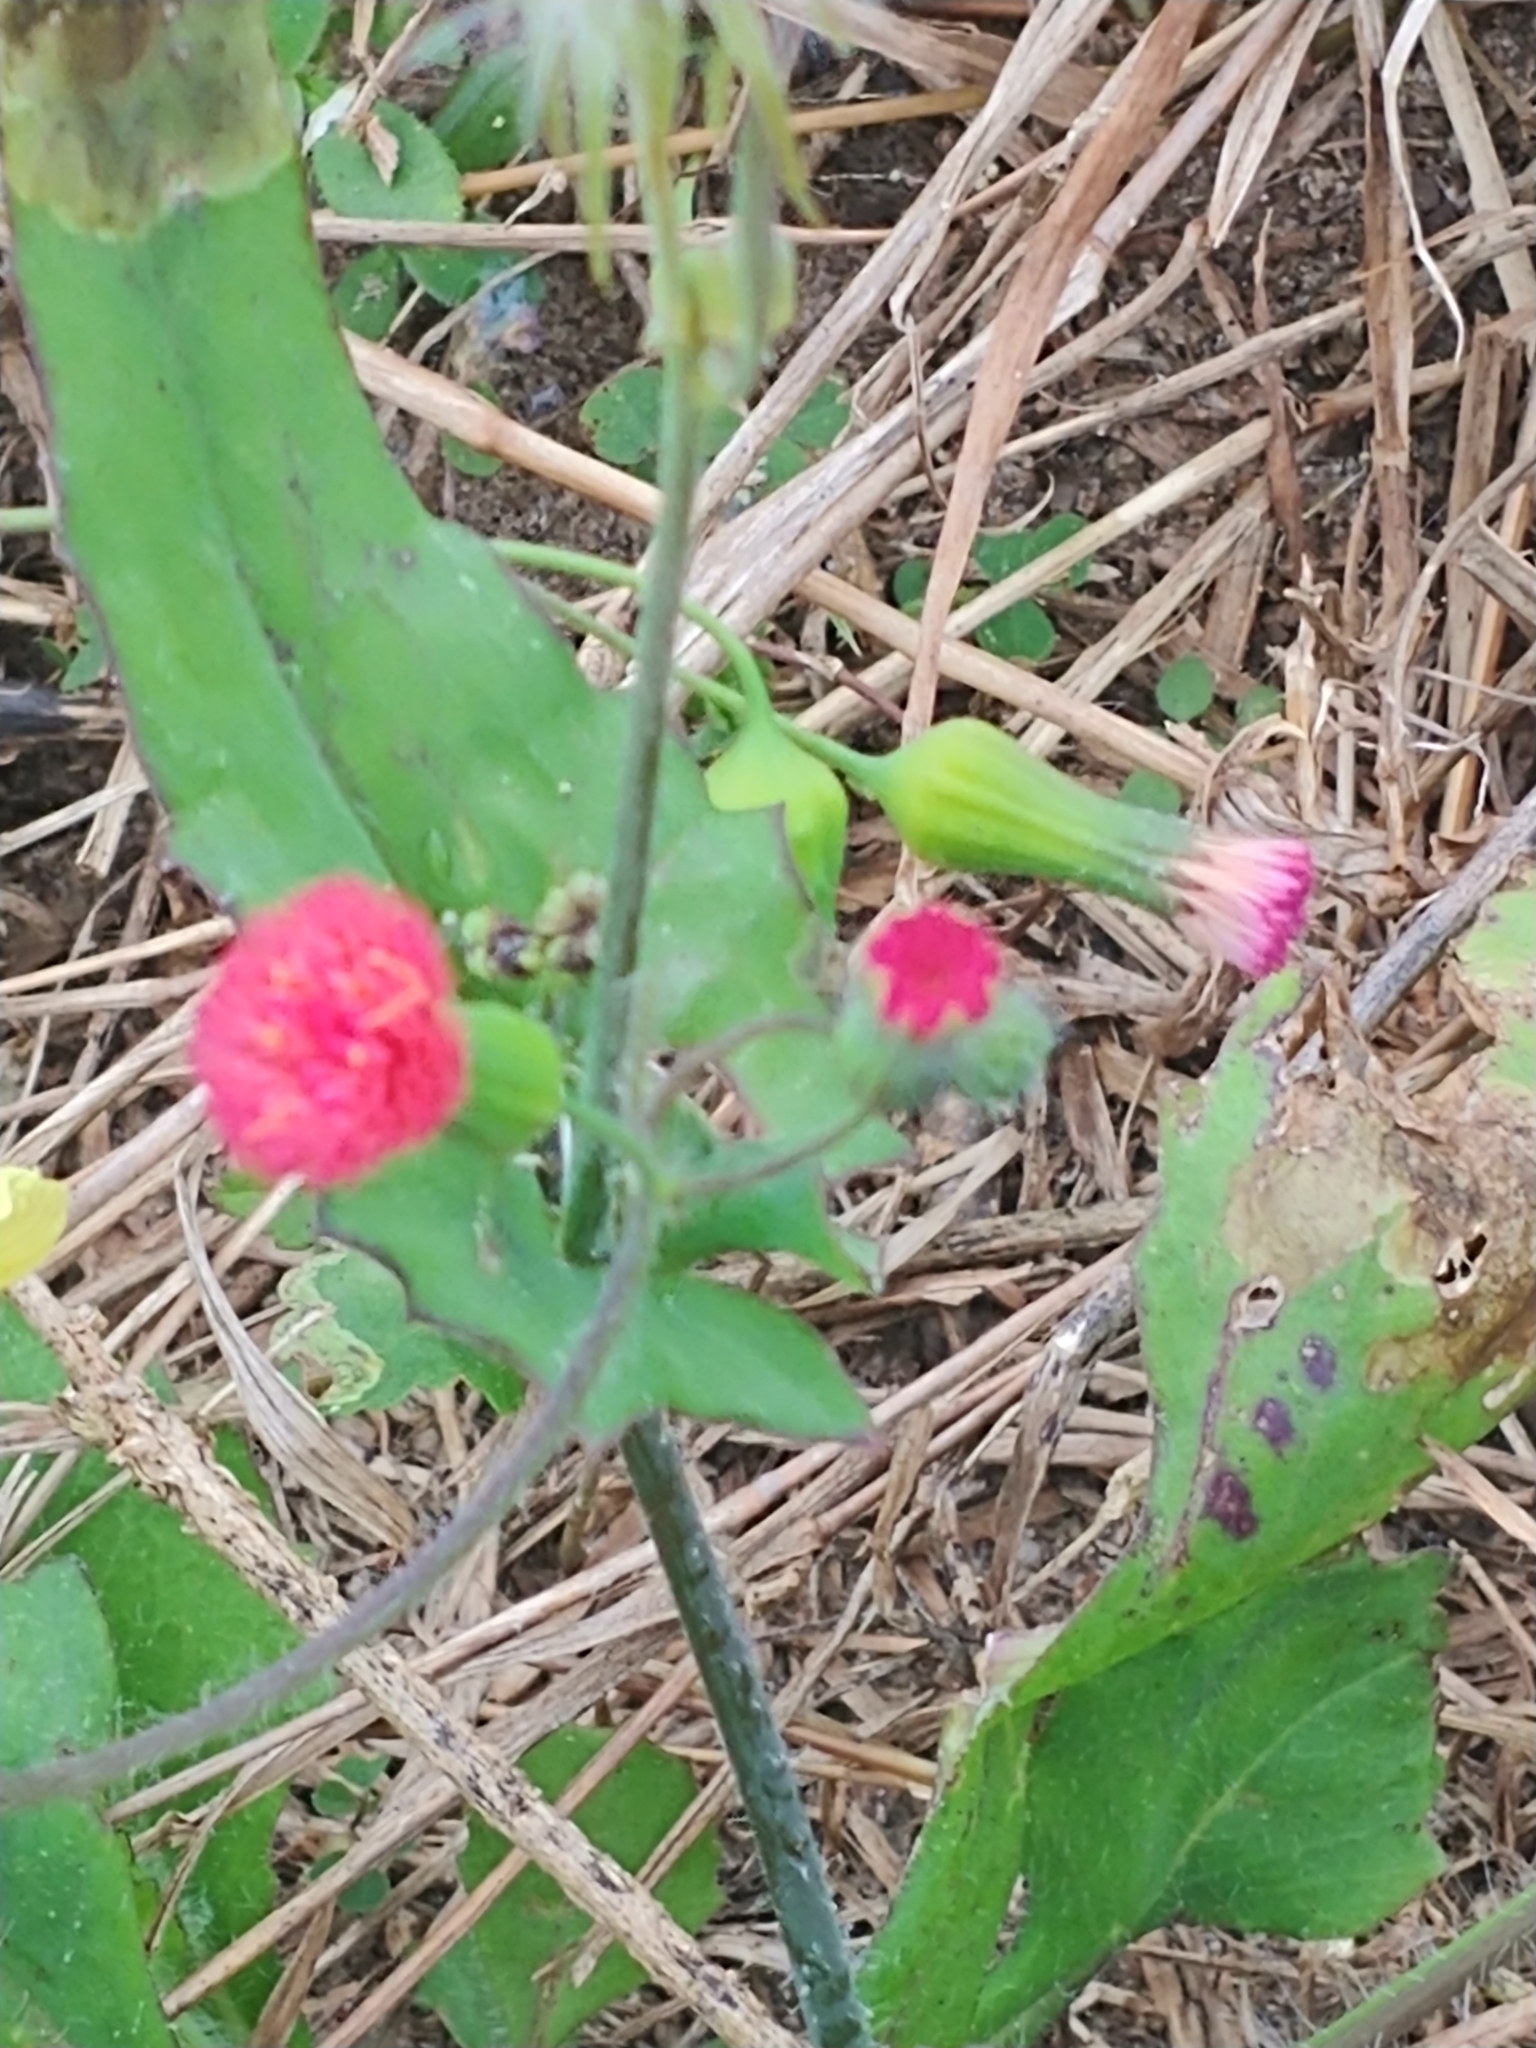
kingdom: Plantae
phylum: Tracheophyta
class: Magnoliopsida
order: Asterales
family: Asteraceae
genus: Emilia
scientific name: Emilia fosbergii
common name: Florida tasselflower
